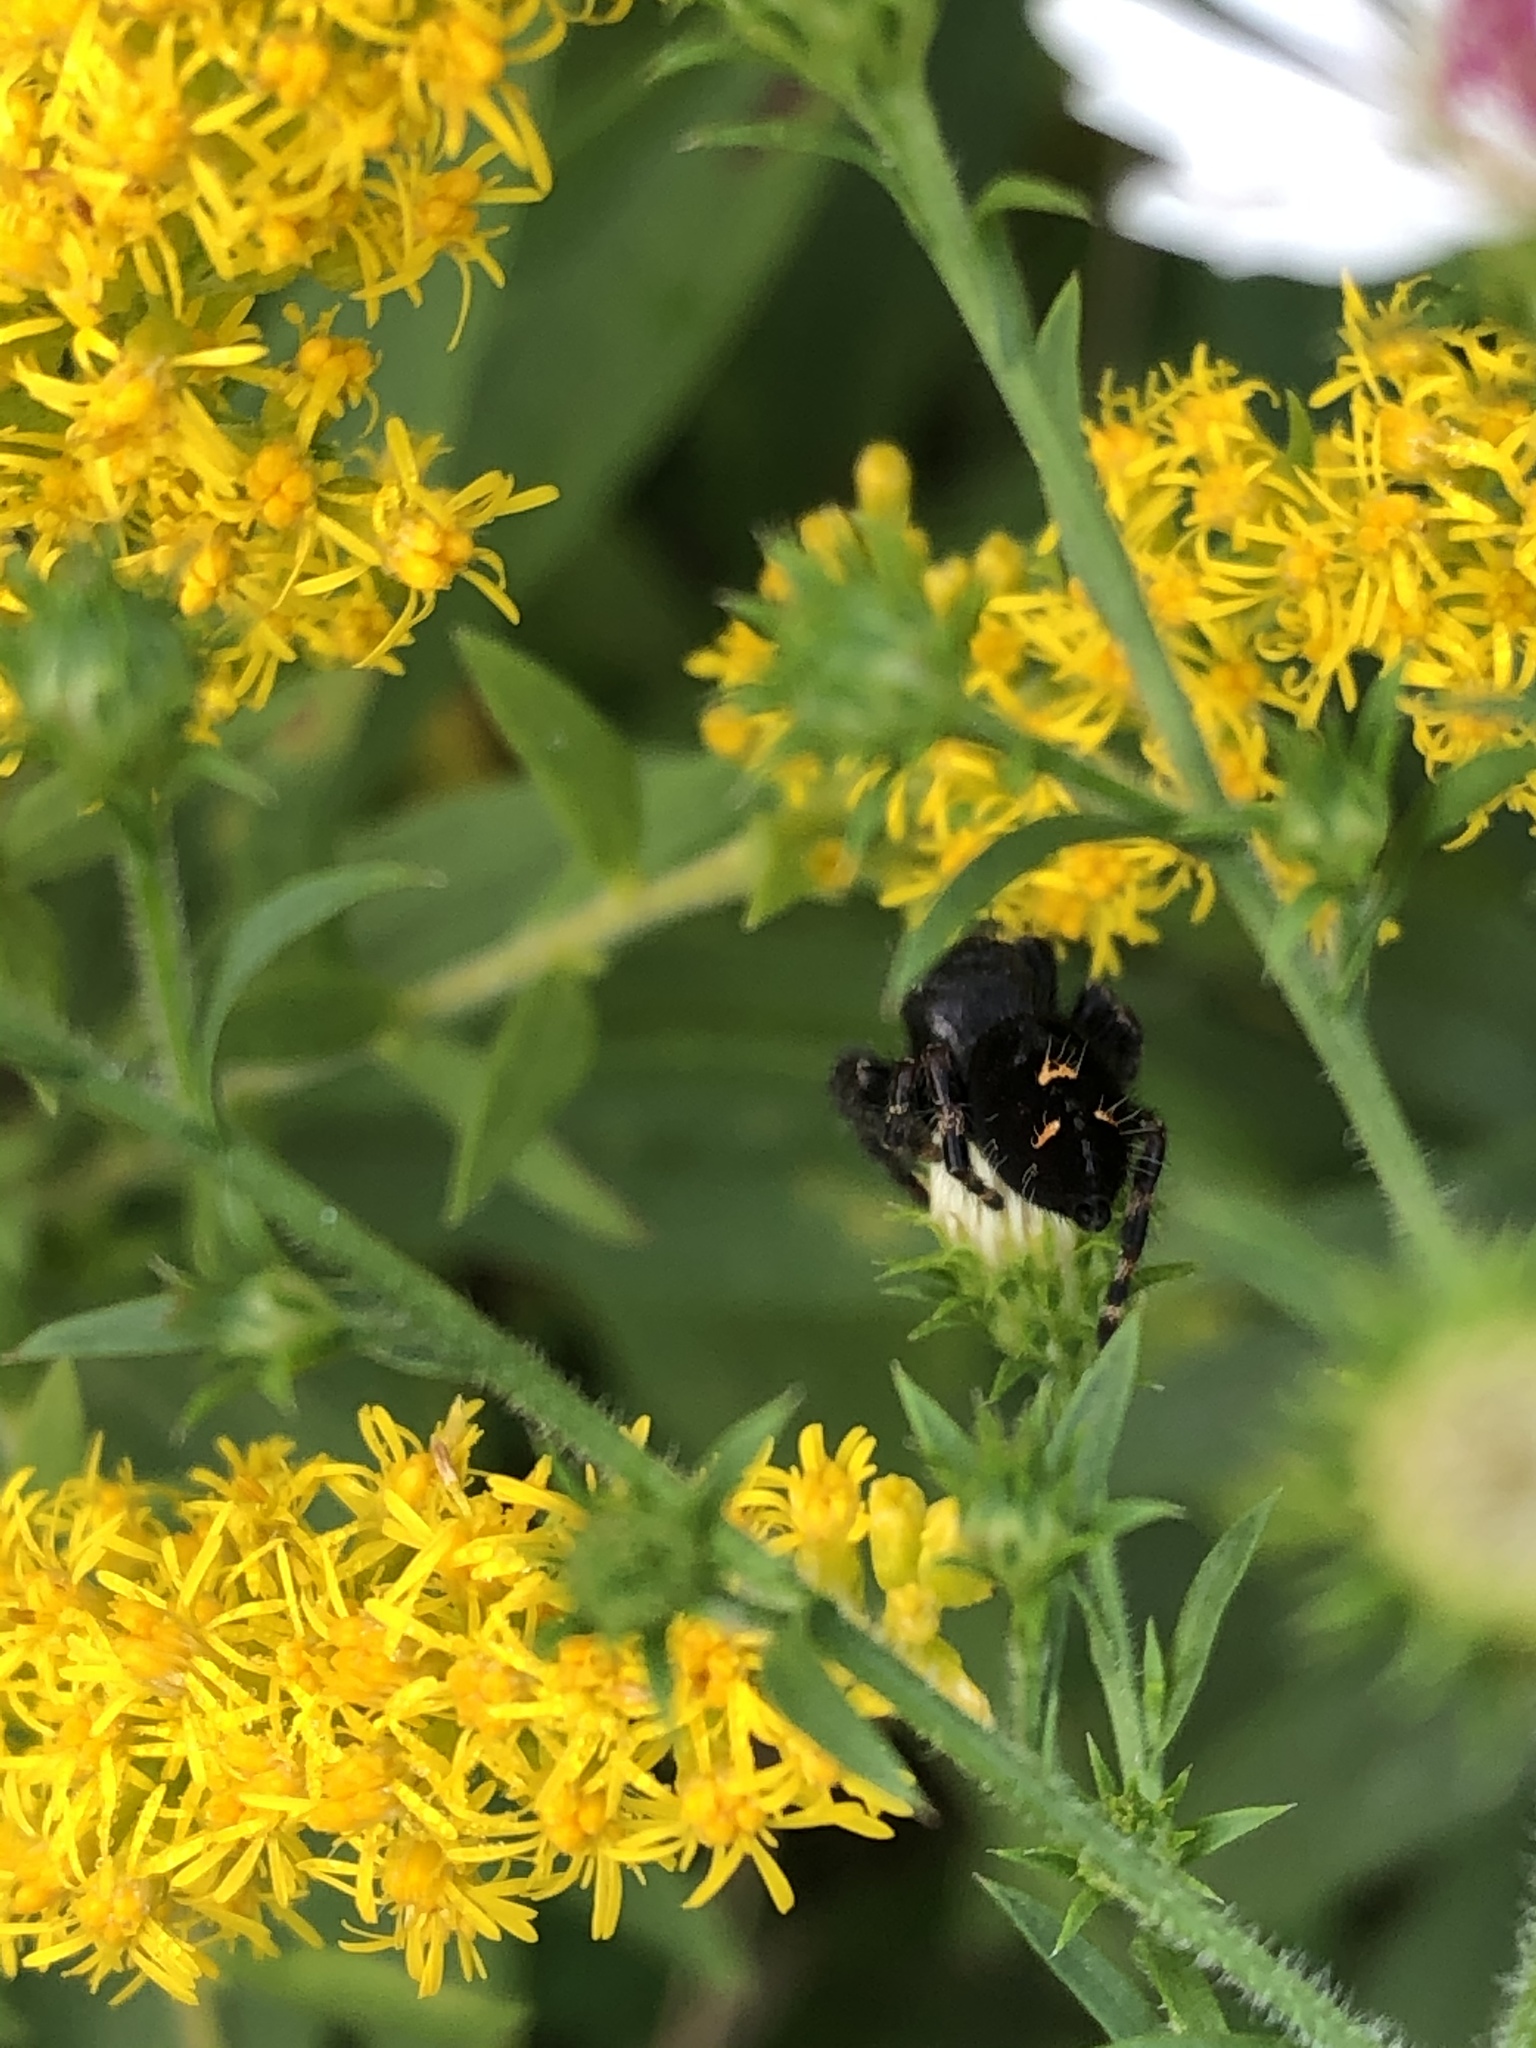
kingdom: Animalia
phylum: Arthropoda
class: Arachnida
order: Araneae
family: Salticidae
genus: Phidippus
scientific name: Phidippus audax
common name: Bold jumper
